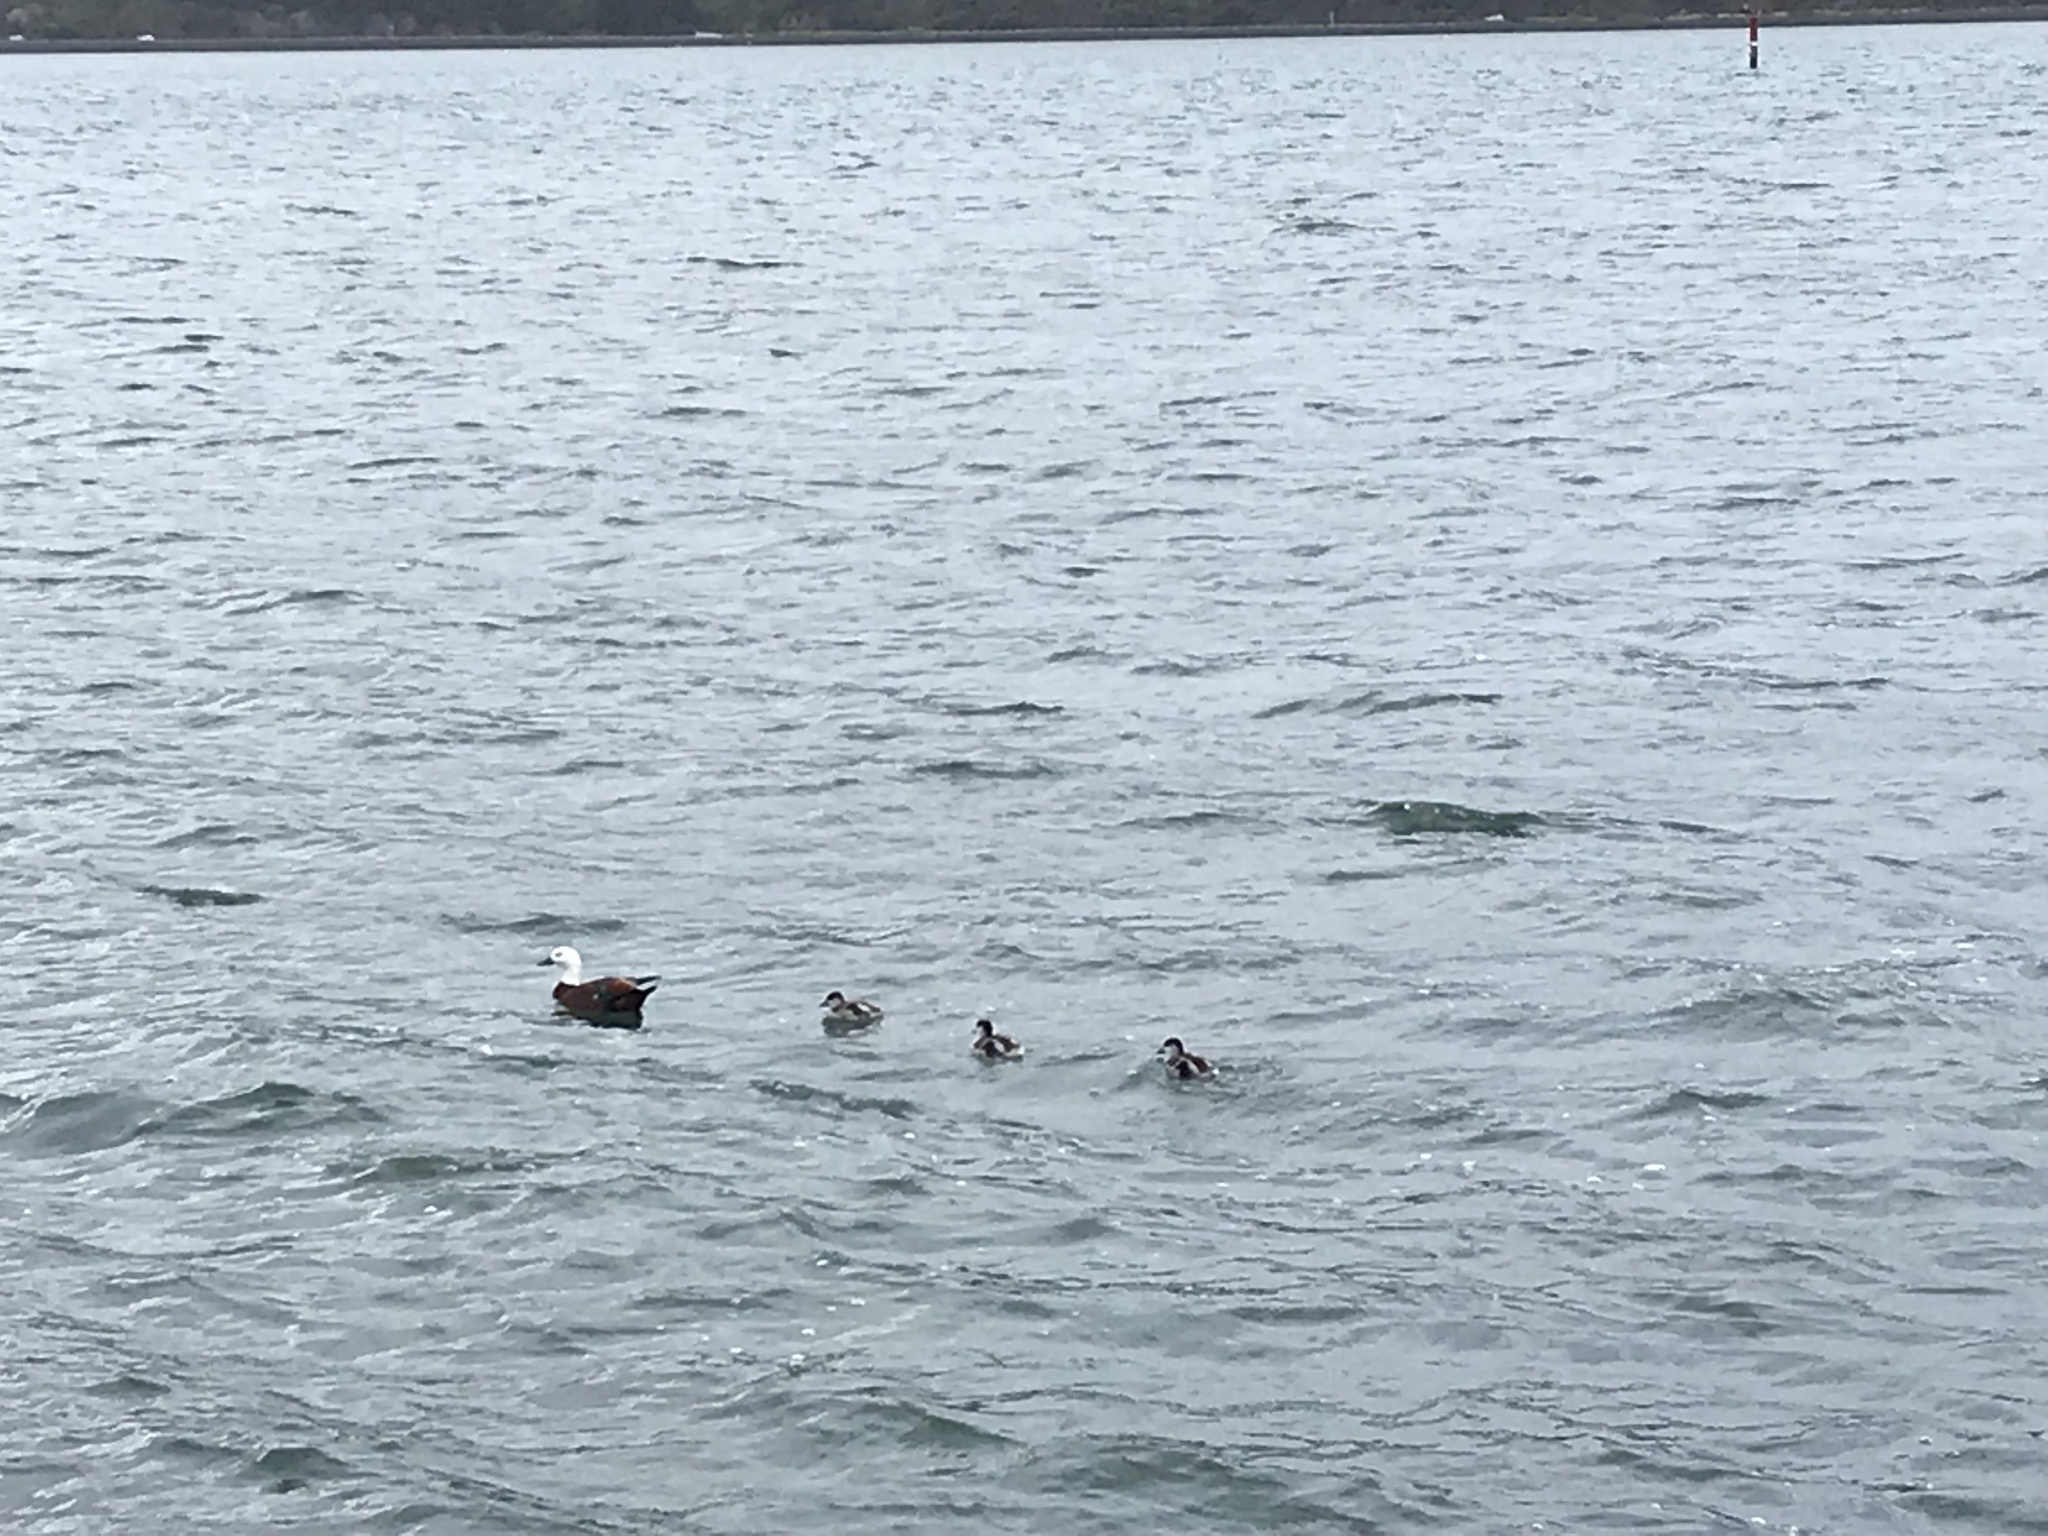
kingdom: Animalia
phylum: Chordata
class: Aves
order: Anseriformes
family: Anatidae
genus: Tadorna
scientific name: Tadorna variegata
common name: Paradise shelduck
